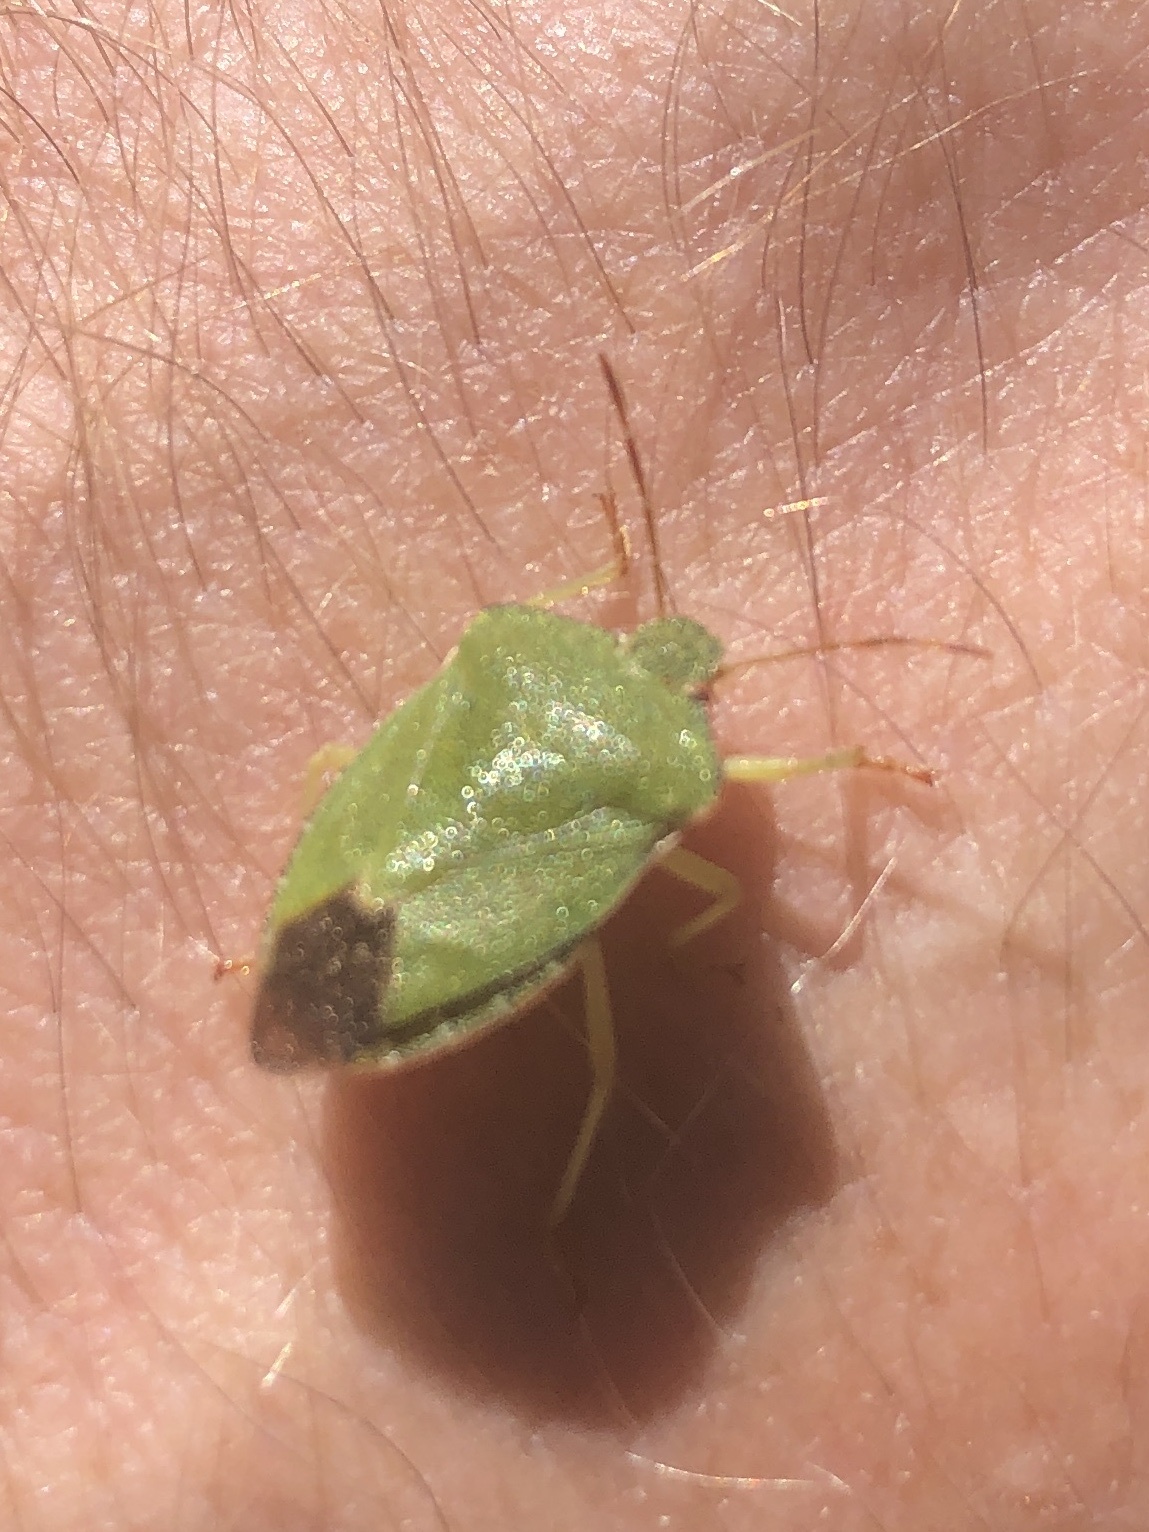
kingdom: Animalia
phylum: Arthropoda
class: Insecta
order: Hemiptera
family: Pentatomidae
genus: Palomena
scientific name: Palomena prasina
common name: Green shieldbug
